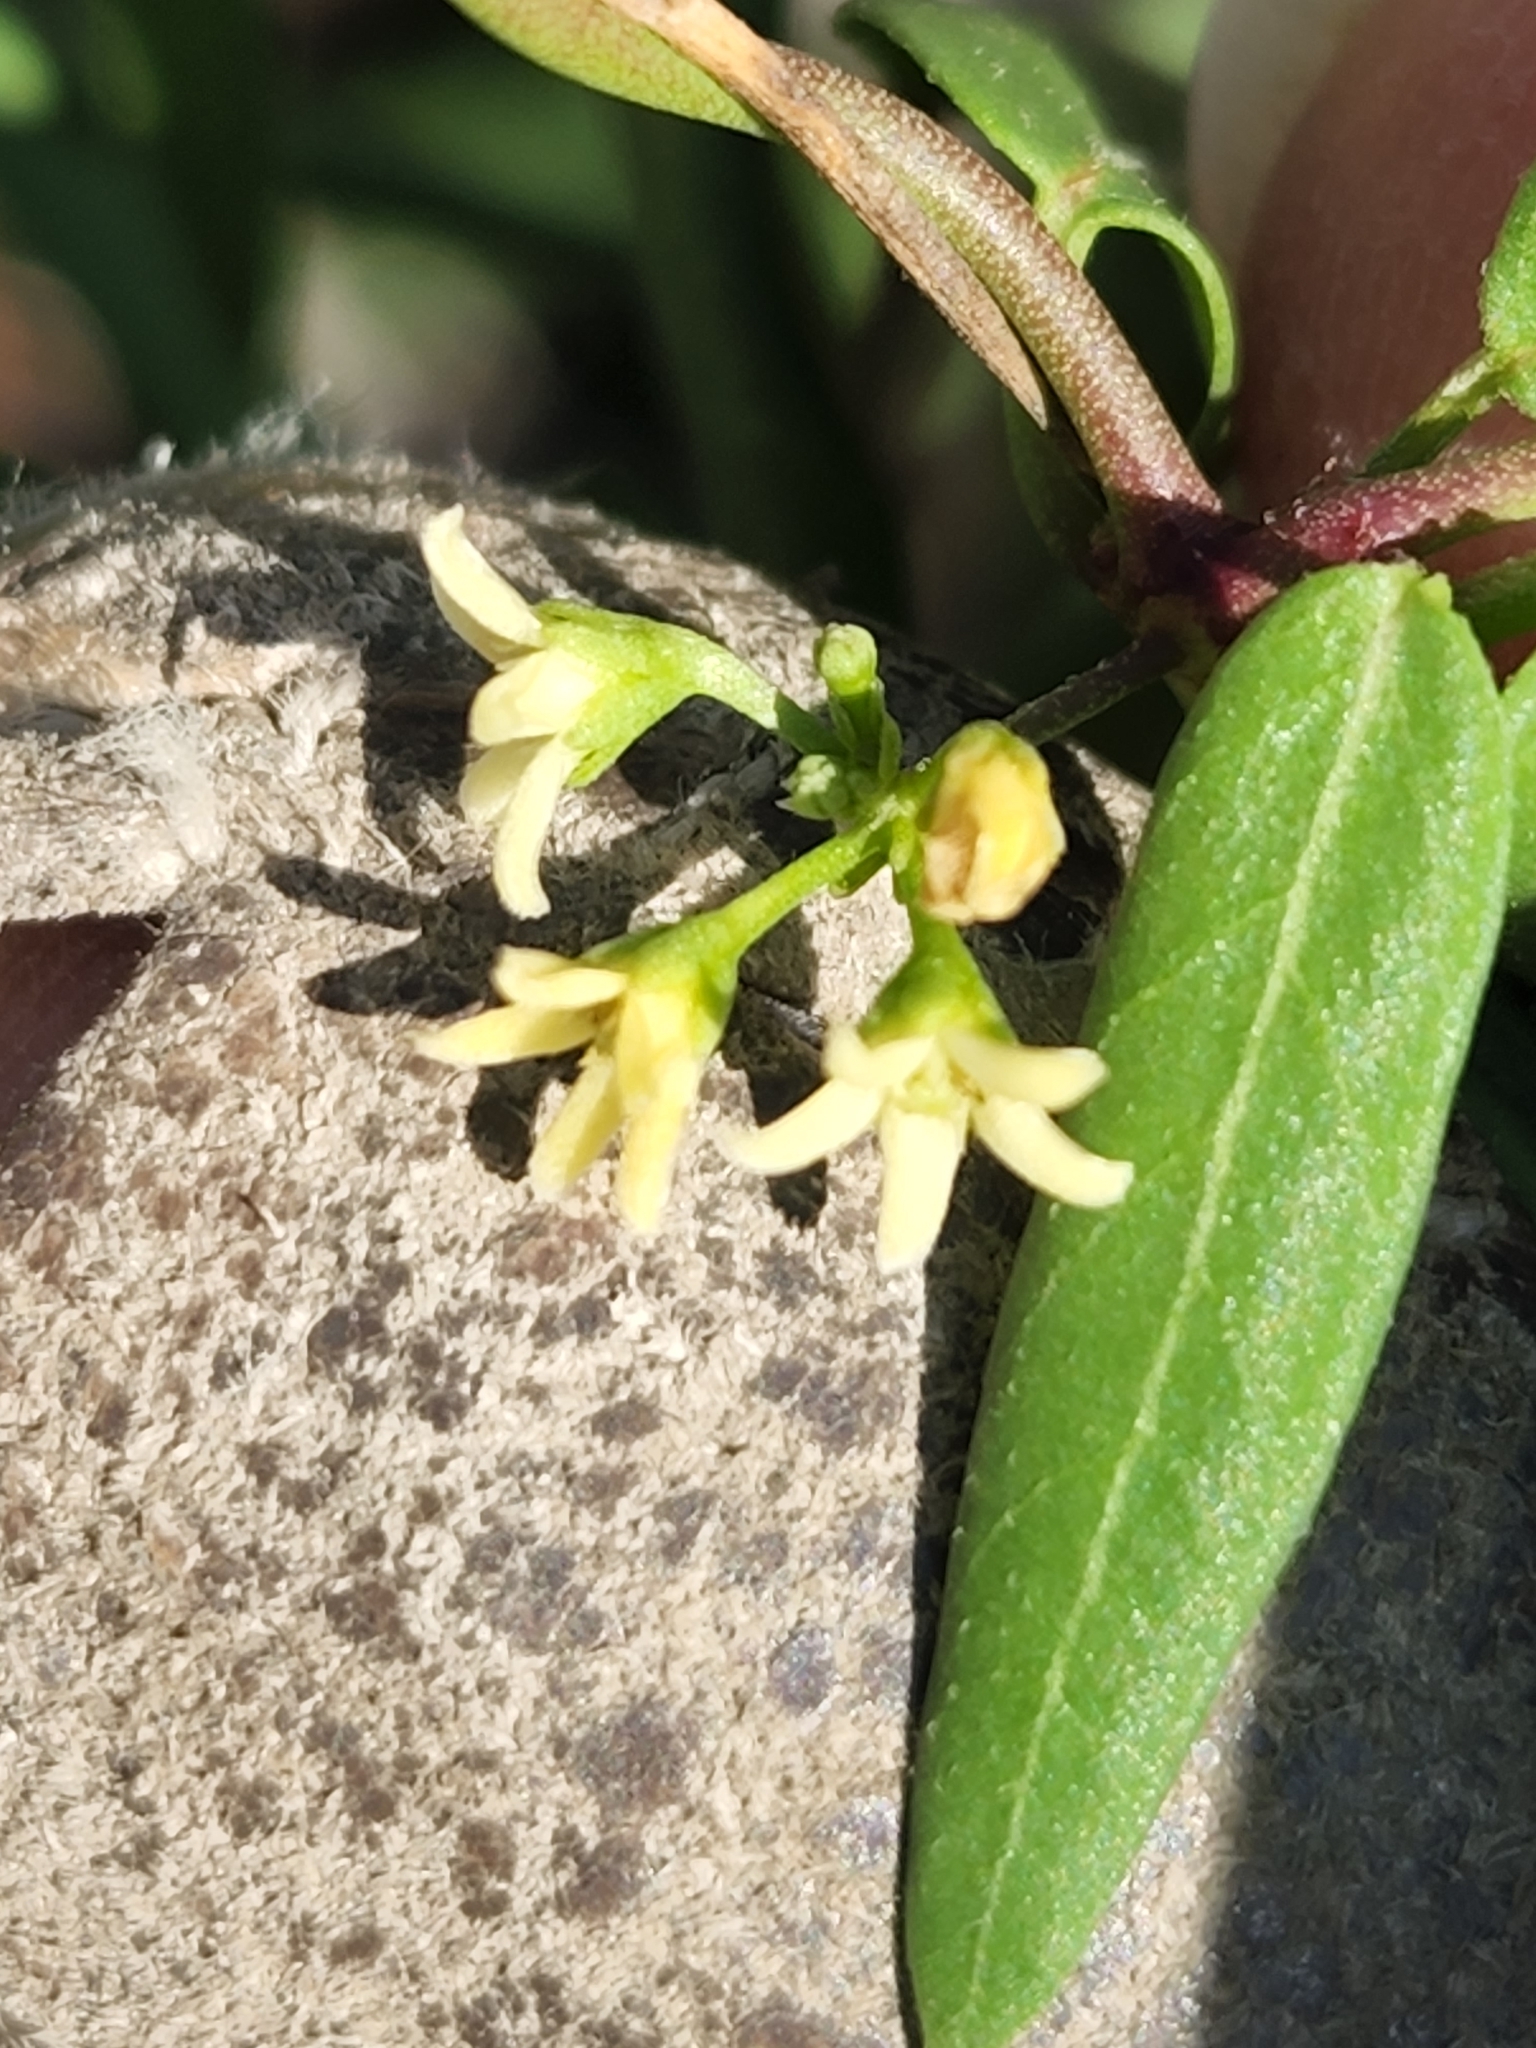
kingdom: Plantae
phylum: Tracheophyta
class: Magnoliopsida
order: Gentianales
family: Apocynaceae
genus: Metastelma
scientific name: Metastelma palmeri
